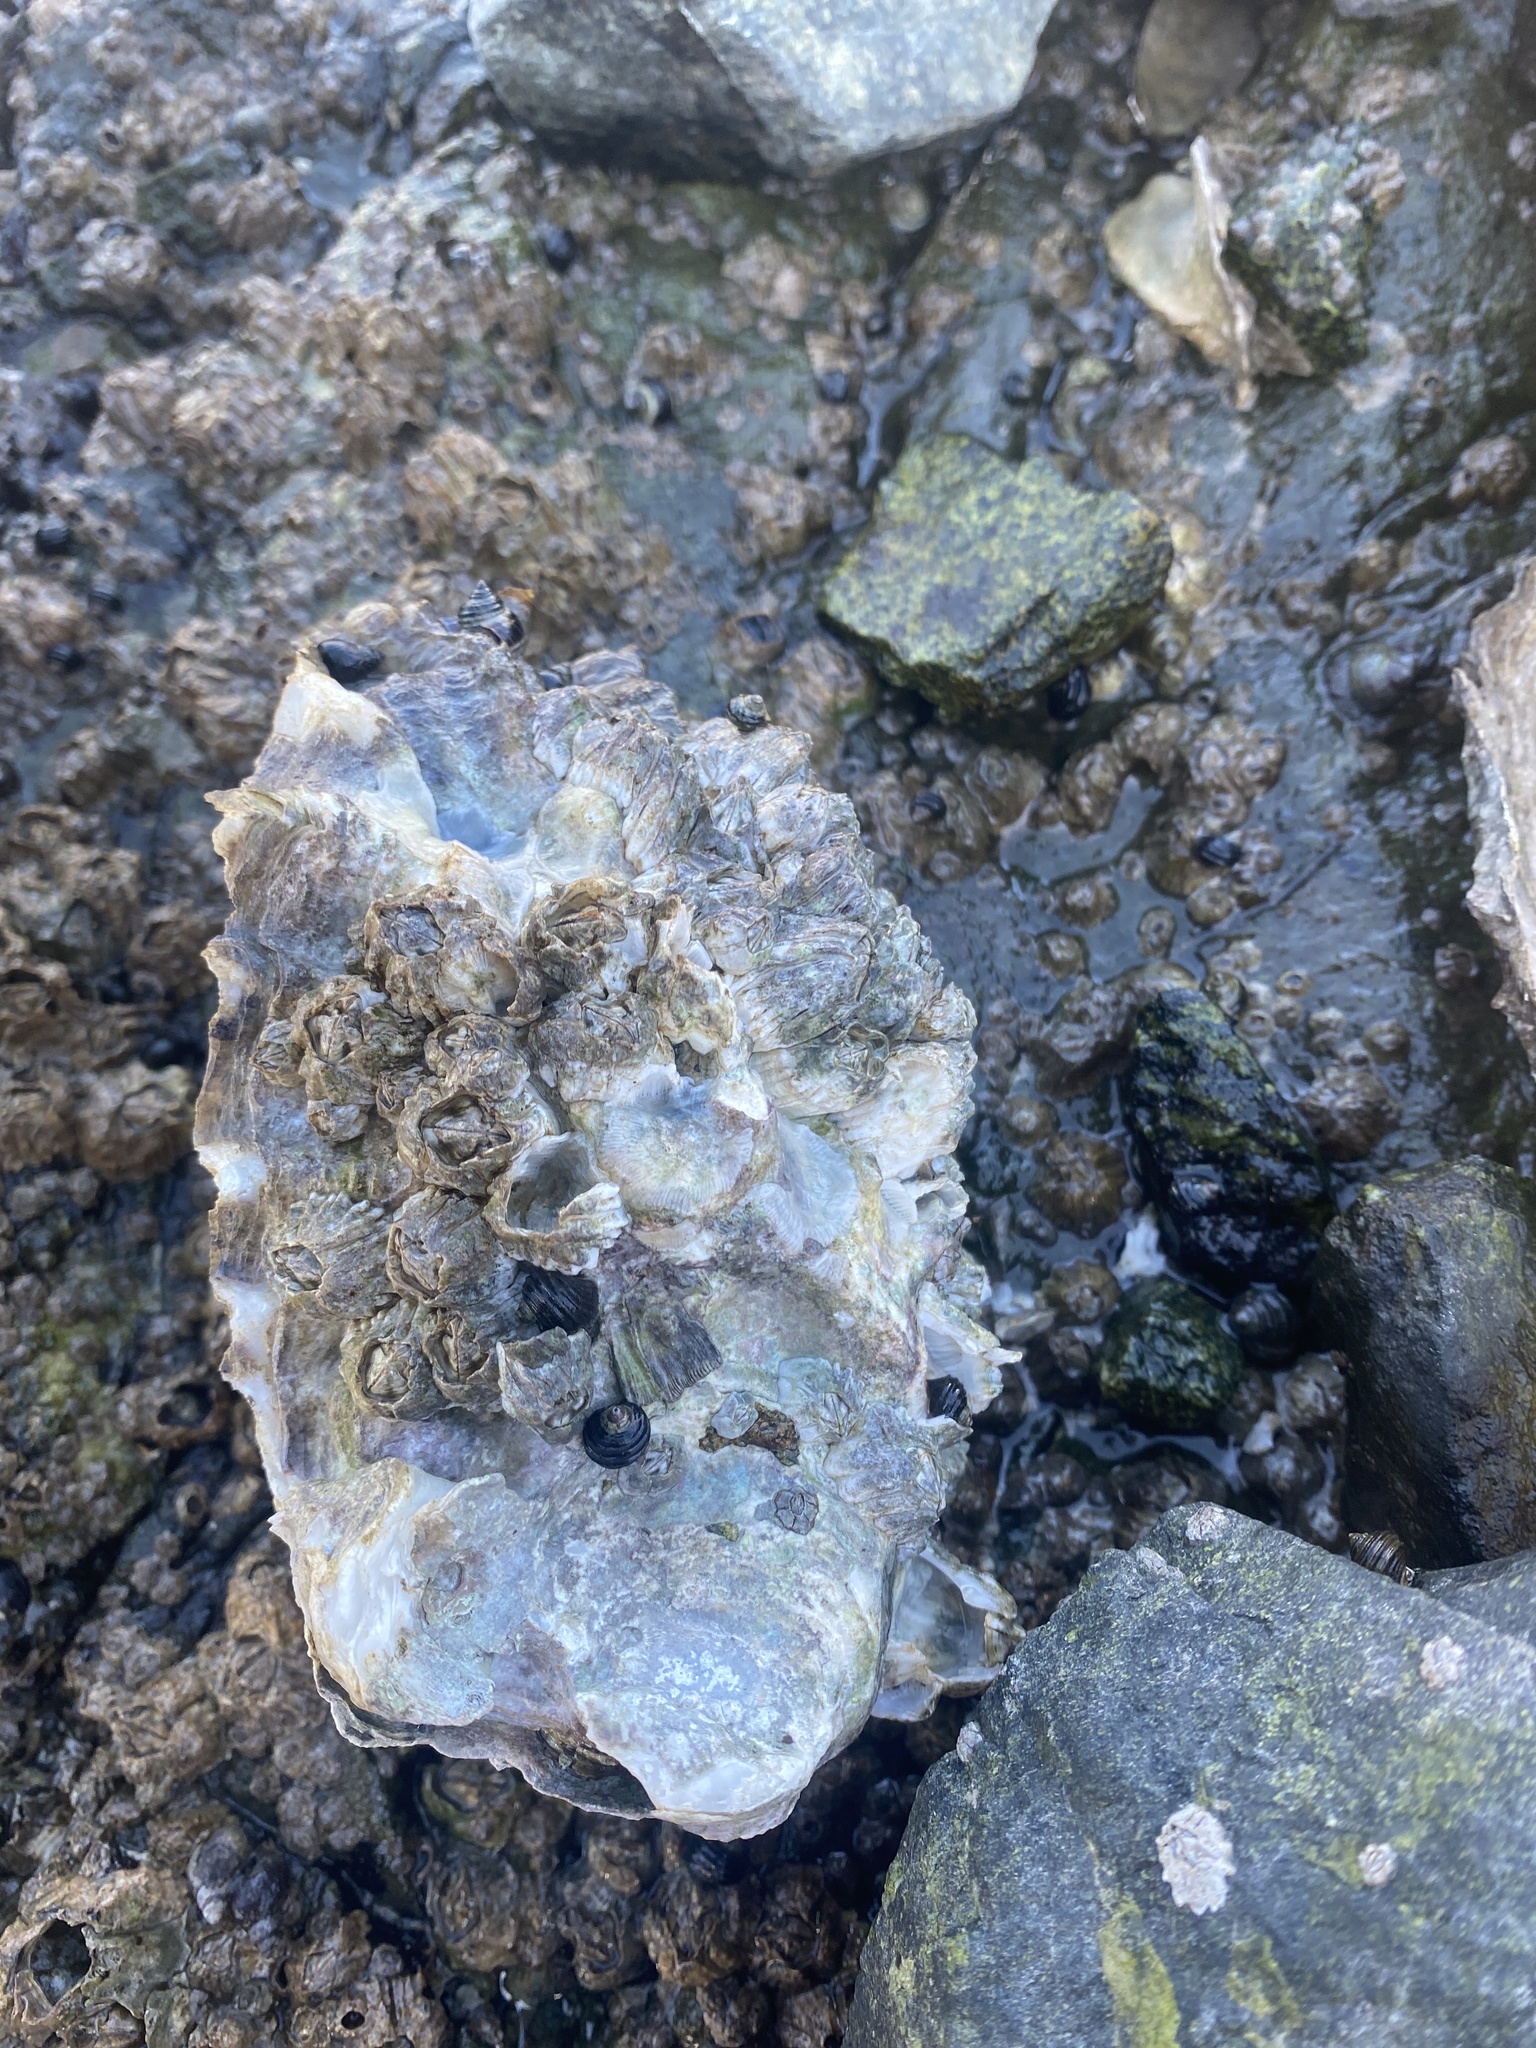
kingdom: Animalia
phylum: Mollusca
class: Bivalvia
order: Ostreida
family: Ostreidae
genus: Magallana
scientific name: Magallana gigas
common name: Pacific oyster
